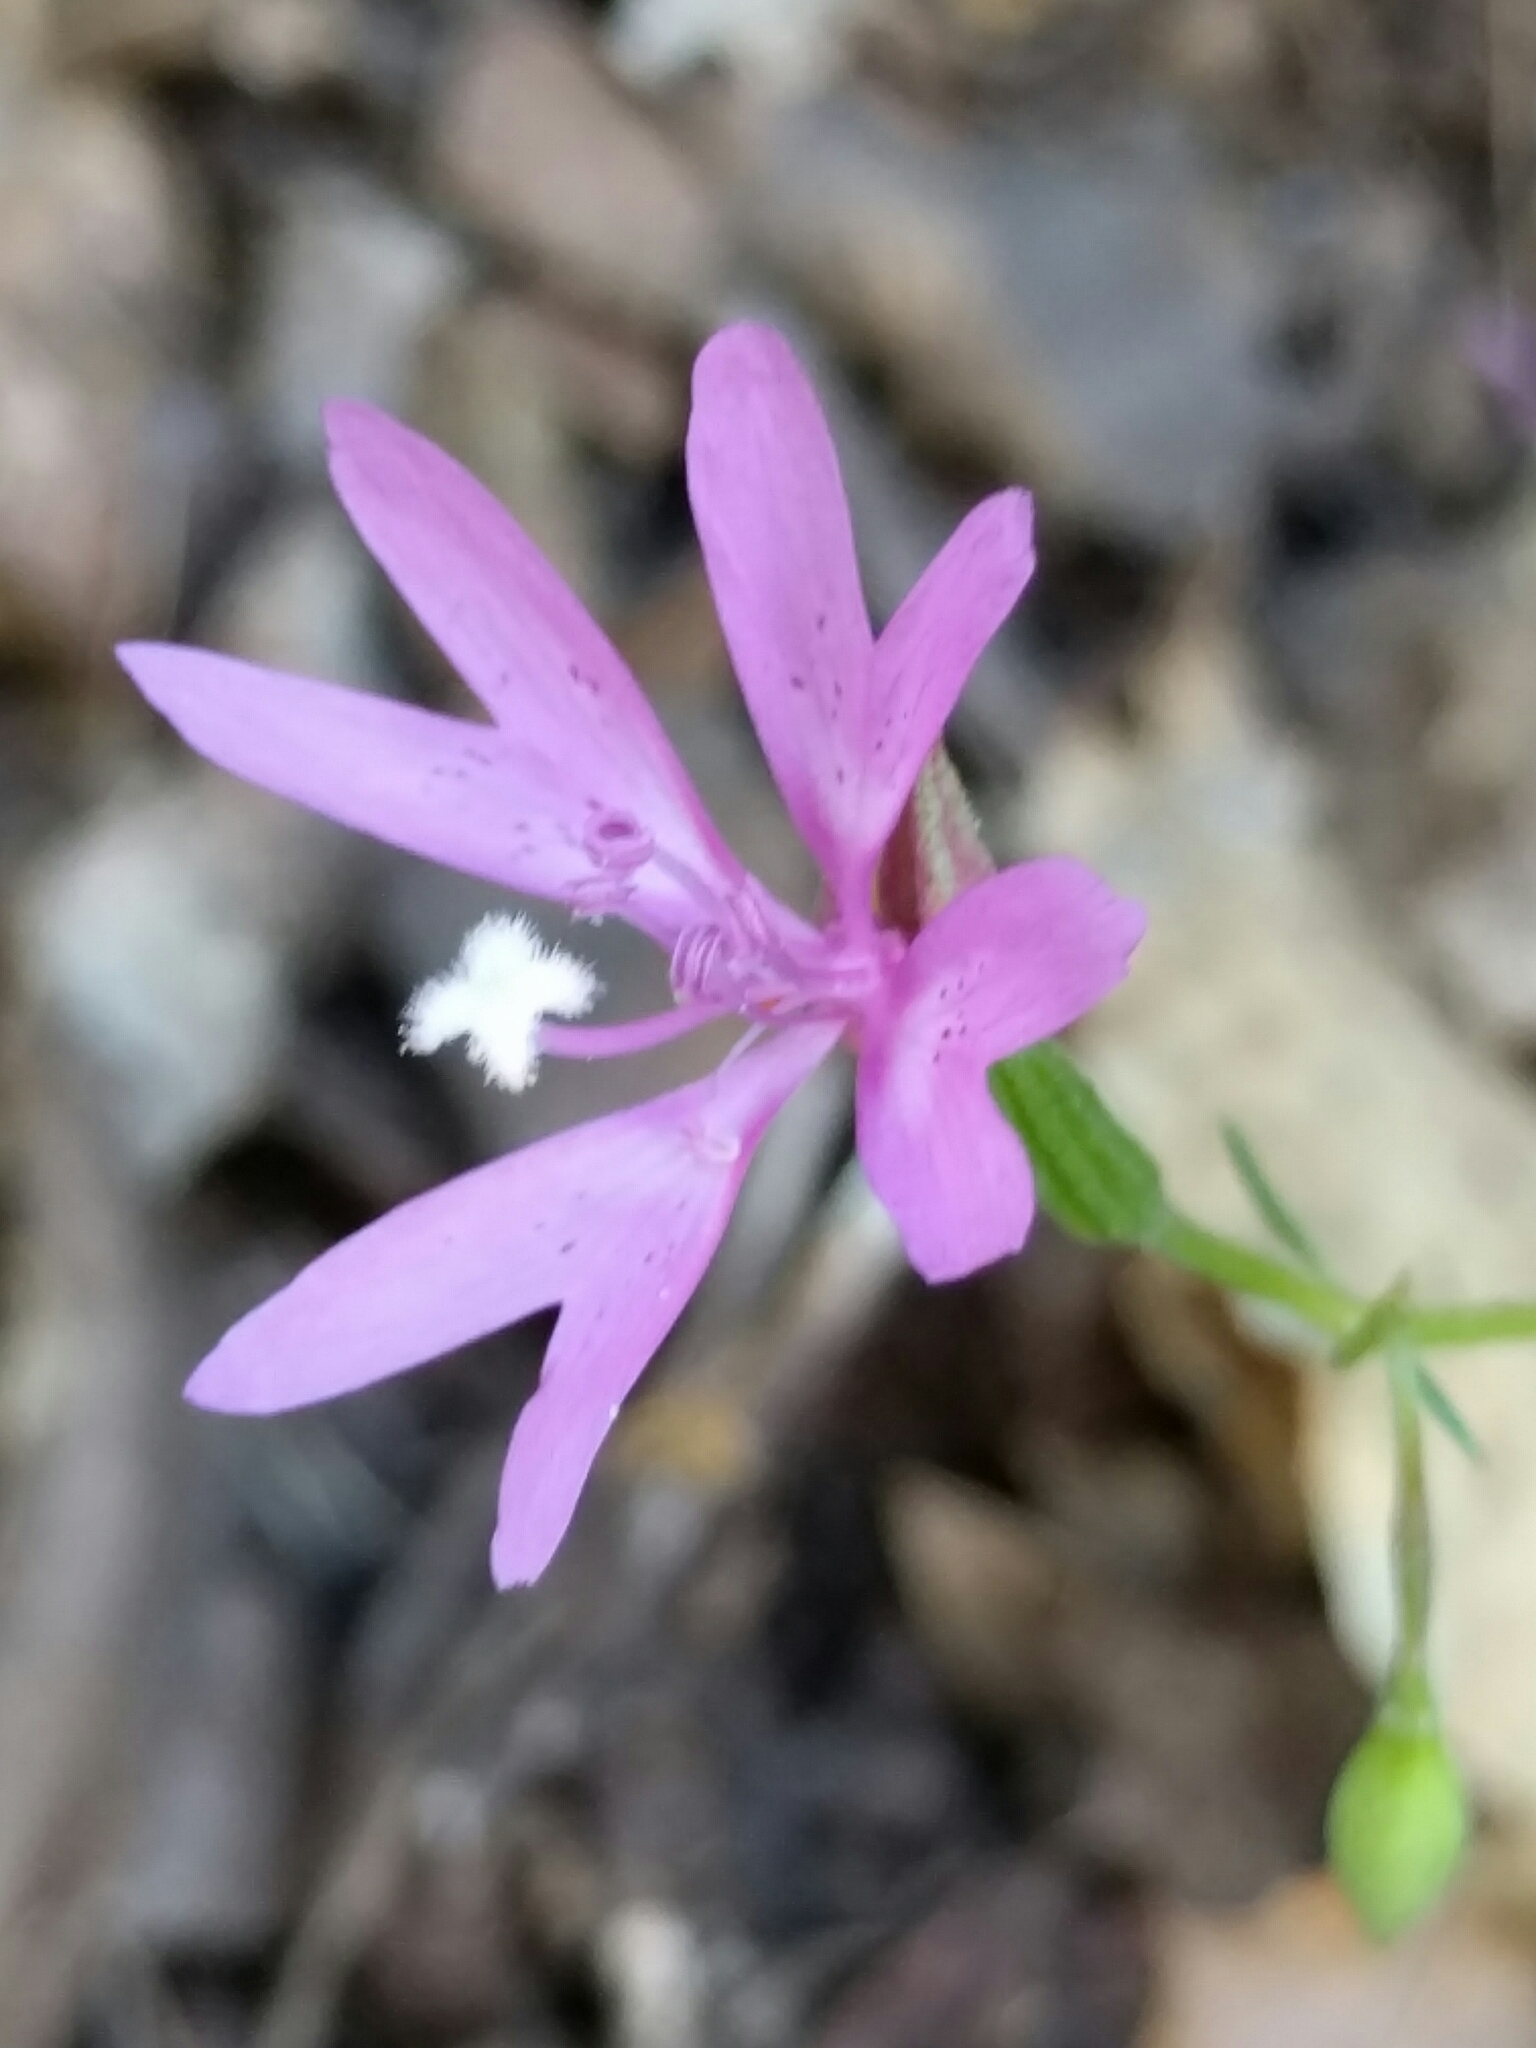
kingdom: Plantae
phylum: Tracheophyta
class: Magnoliopsida
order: Myrtales
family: Onagraceae
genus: Clarkia
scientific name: Clarkia biloba
